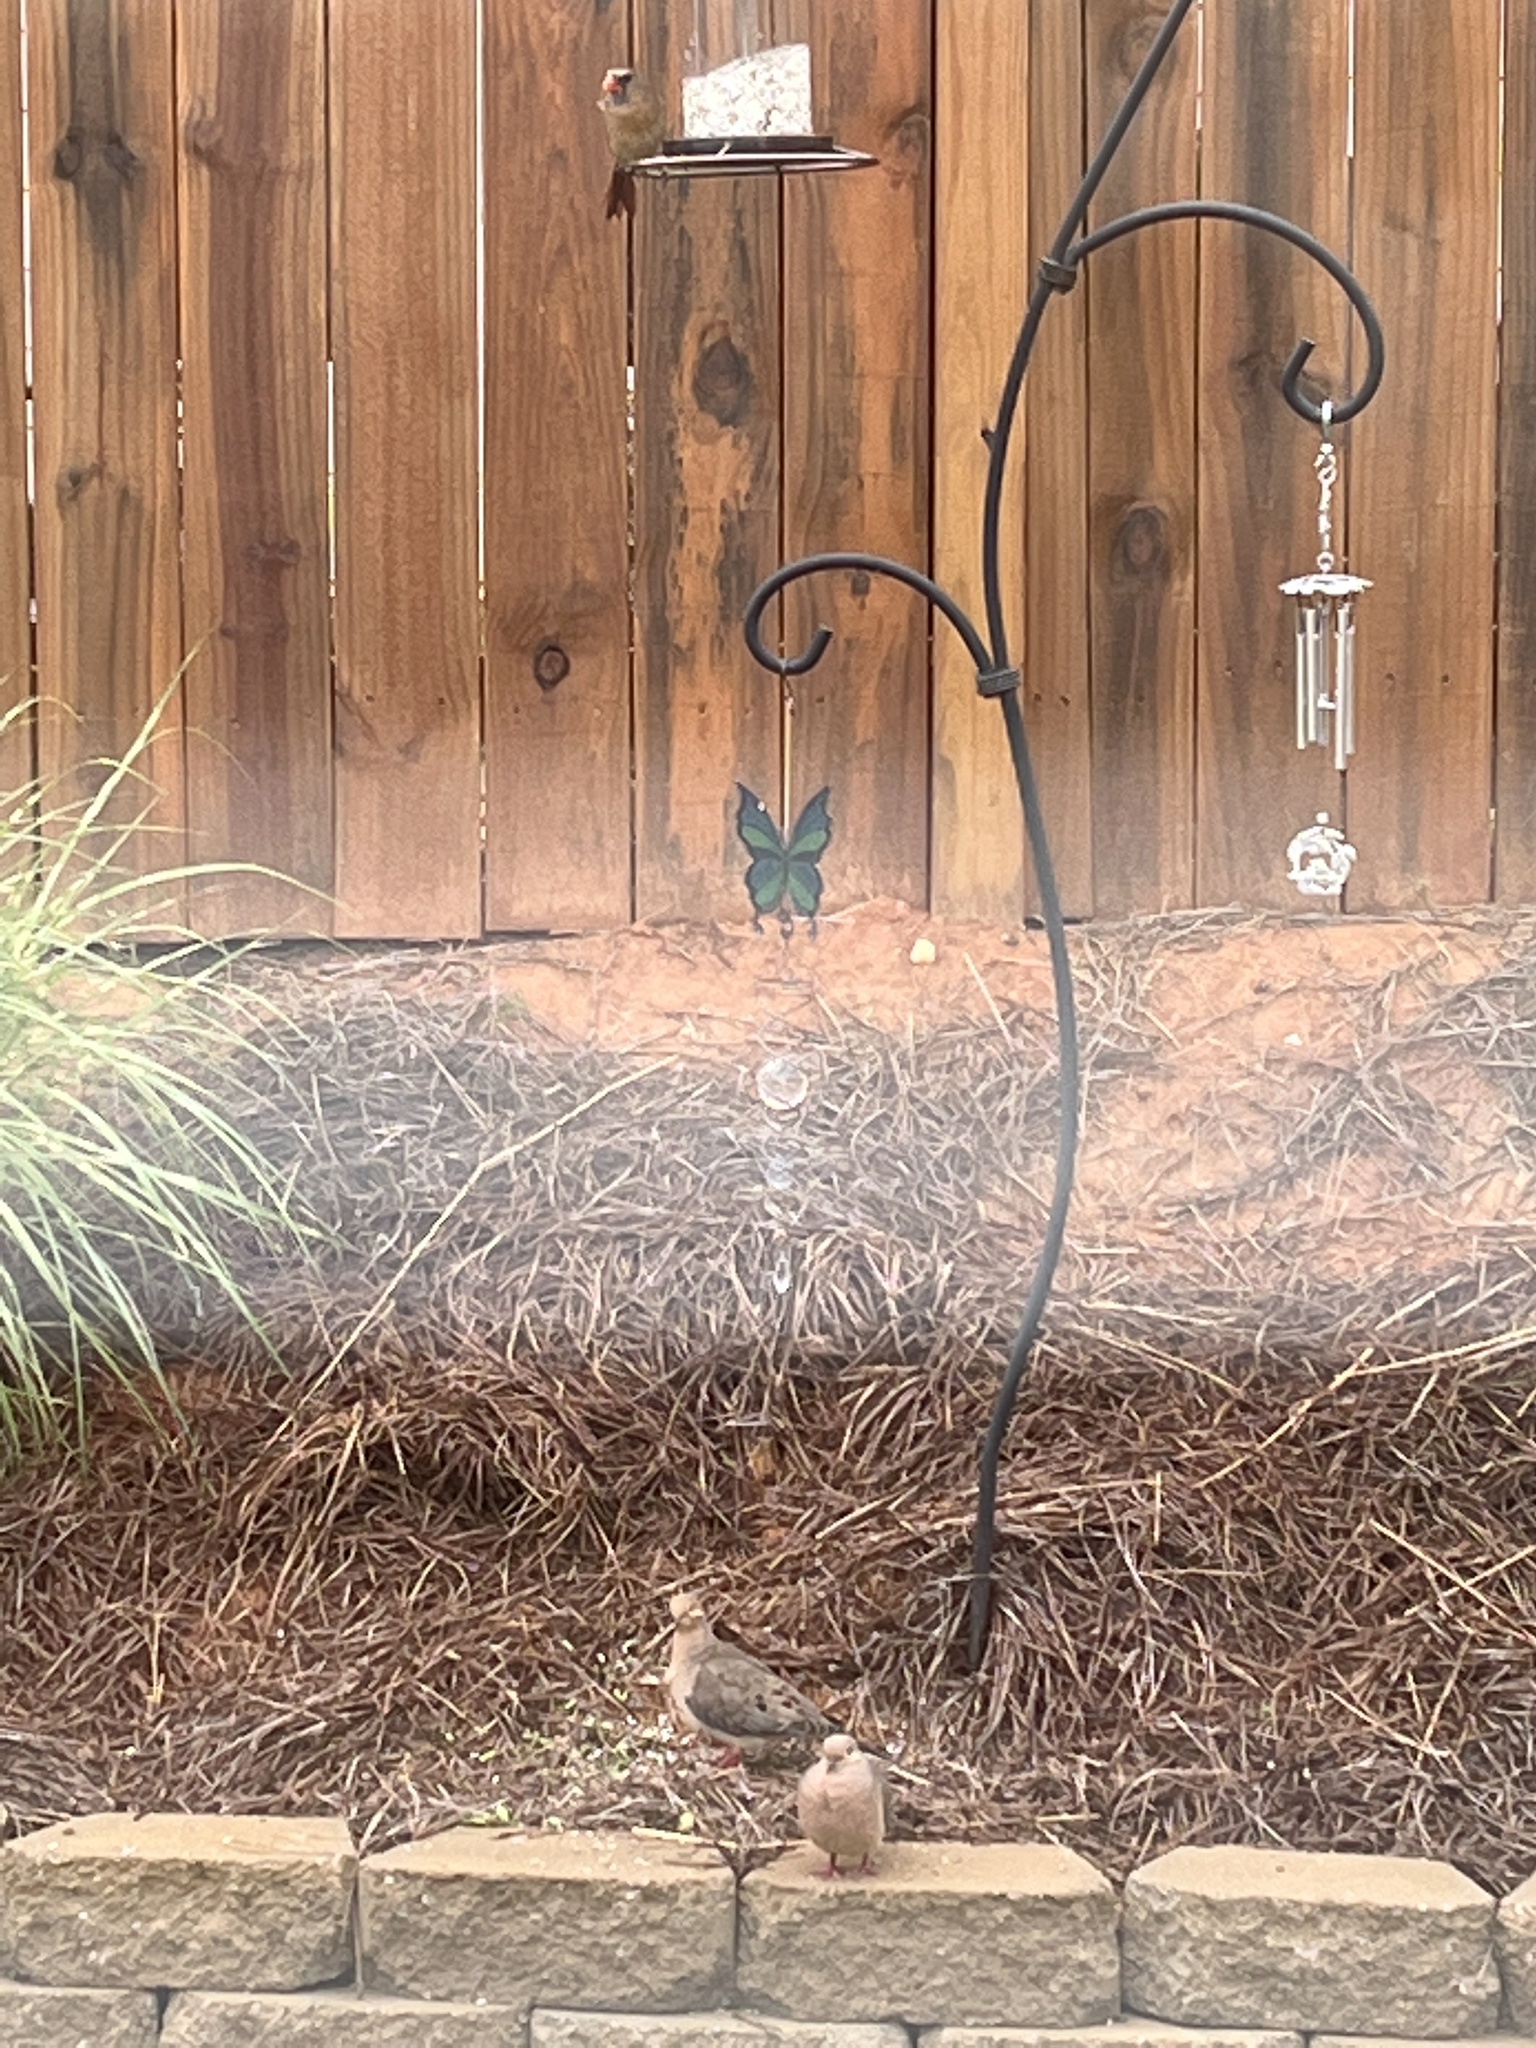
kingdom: Animalia
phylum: Chordata
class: Aves
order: Passeriformes
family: Cardinalidae
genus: Cardinalis
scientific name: Cardinalis cardinalis
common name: Northern cardinal
